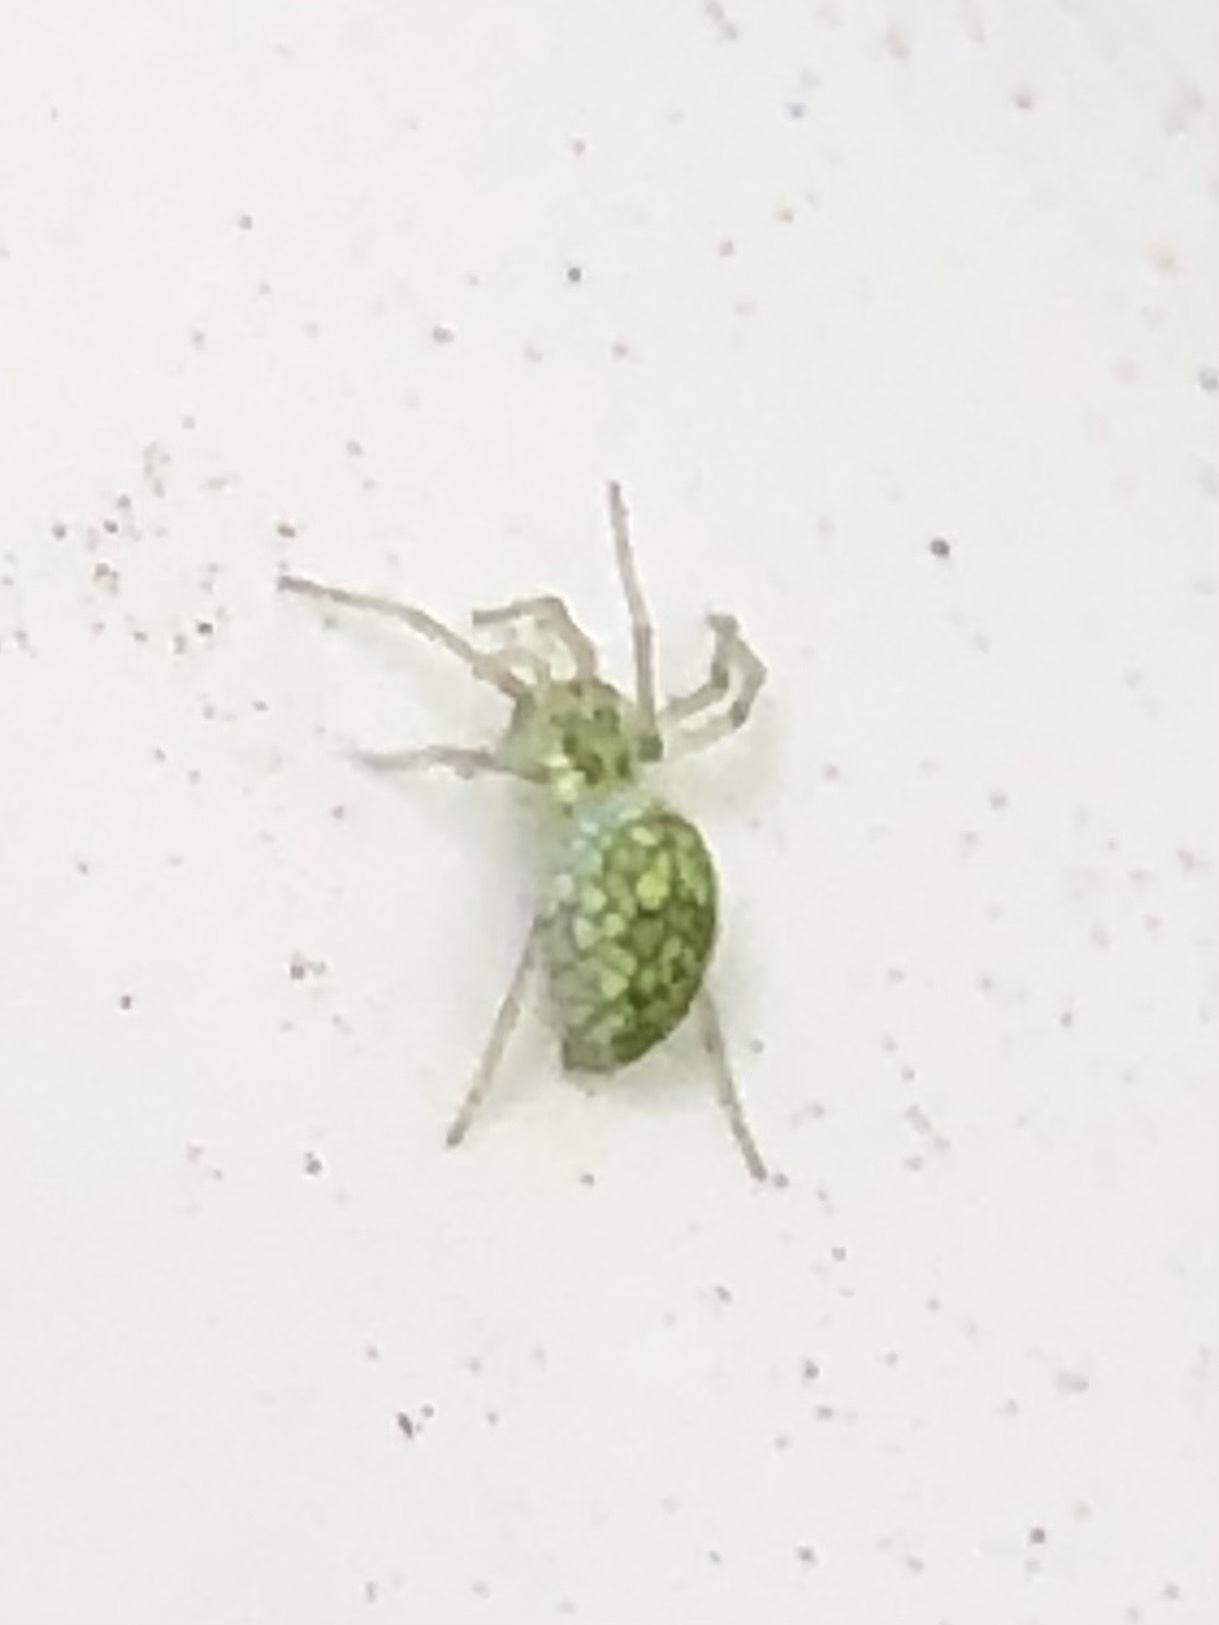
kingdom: Animalia
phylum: Arthropoda
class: Arachnida
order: Araneae
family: Dictynidae
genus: Nigma
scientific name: Nigma linsdalei
